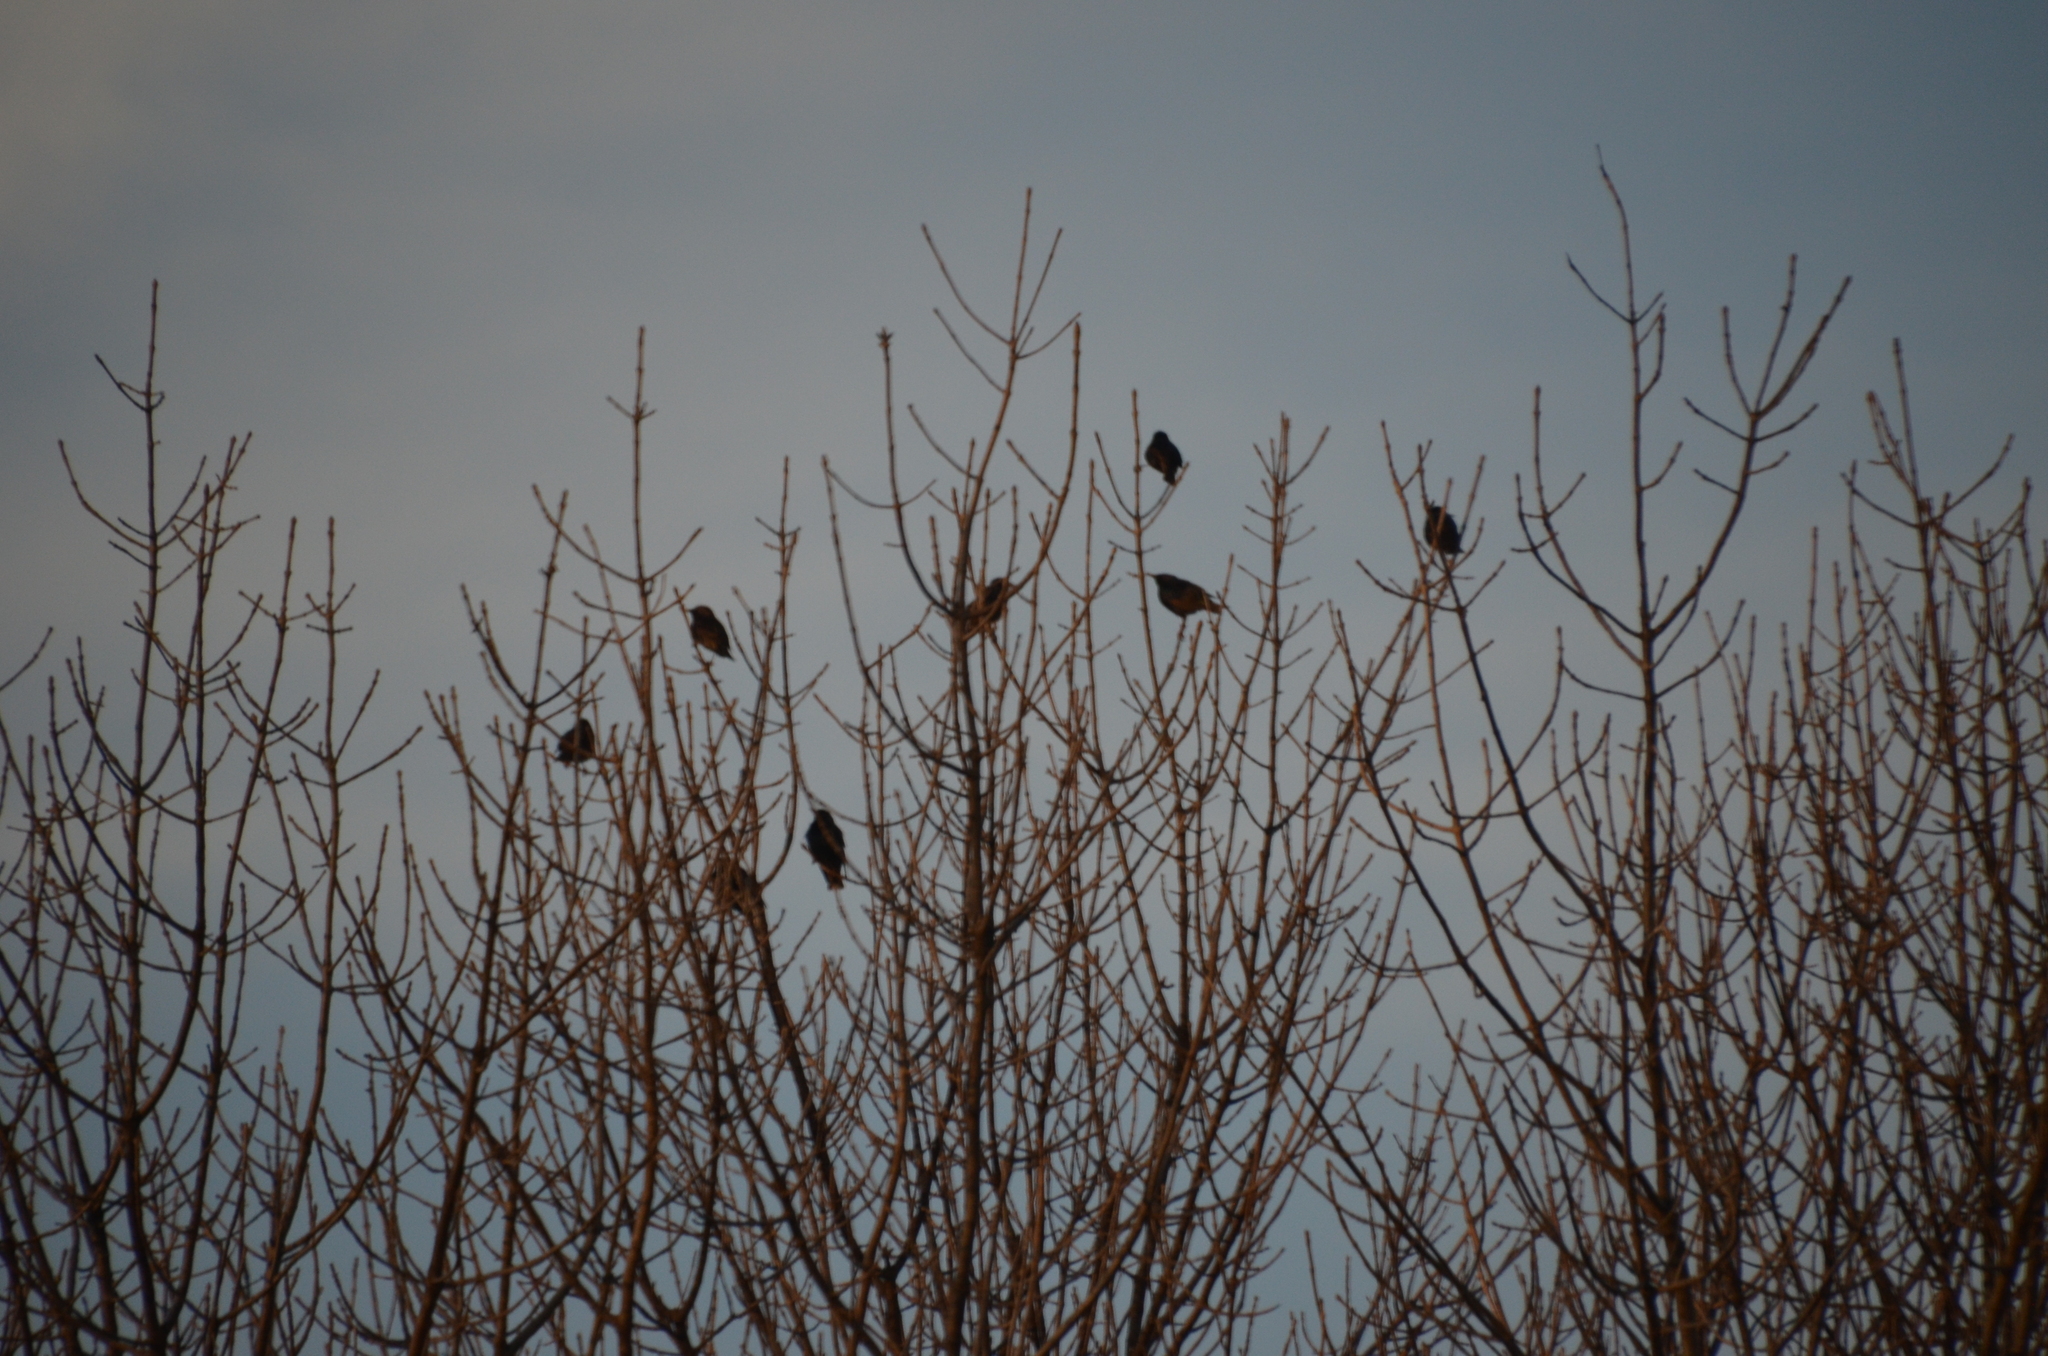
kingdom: Animalia
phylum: Chordata
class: Aves
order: Passeriformes
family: Sturnidae
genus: Sturnus
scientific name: Sturnus vulgaris
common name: Common starling
